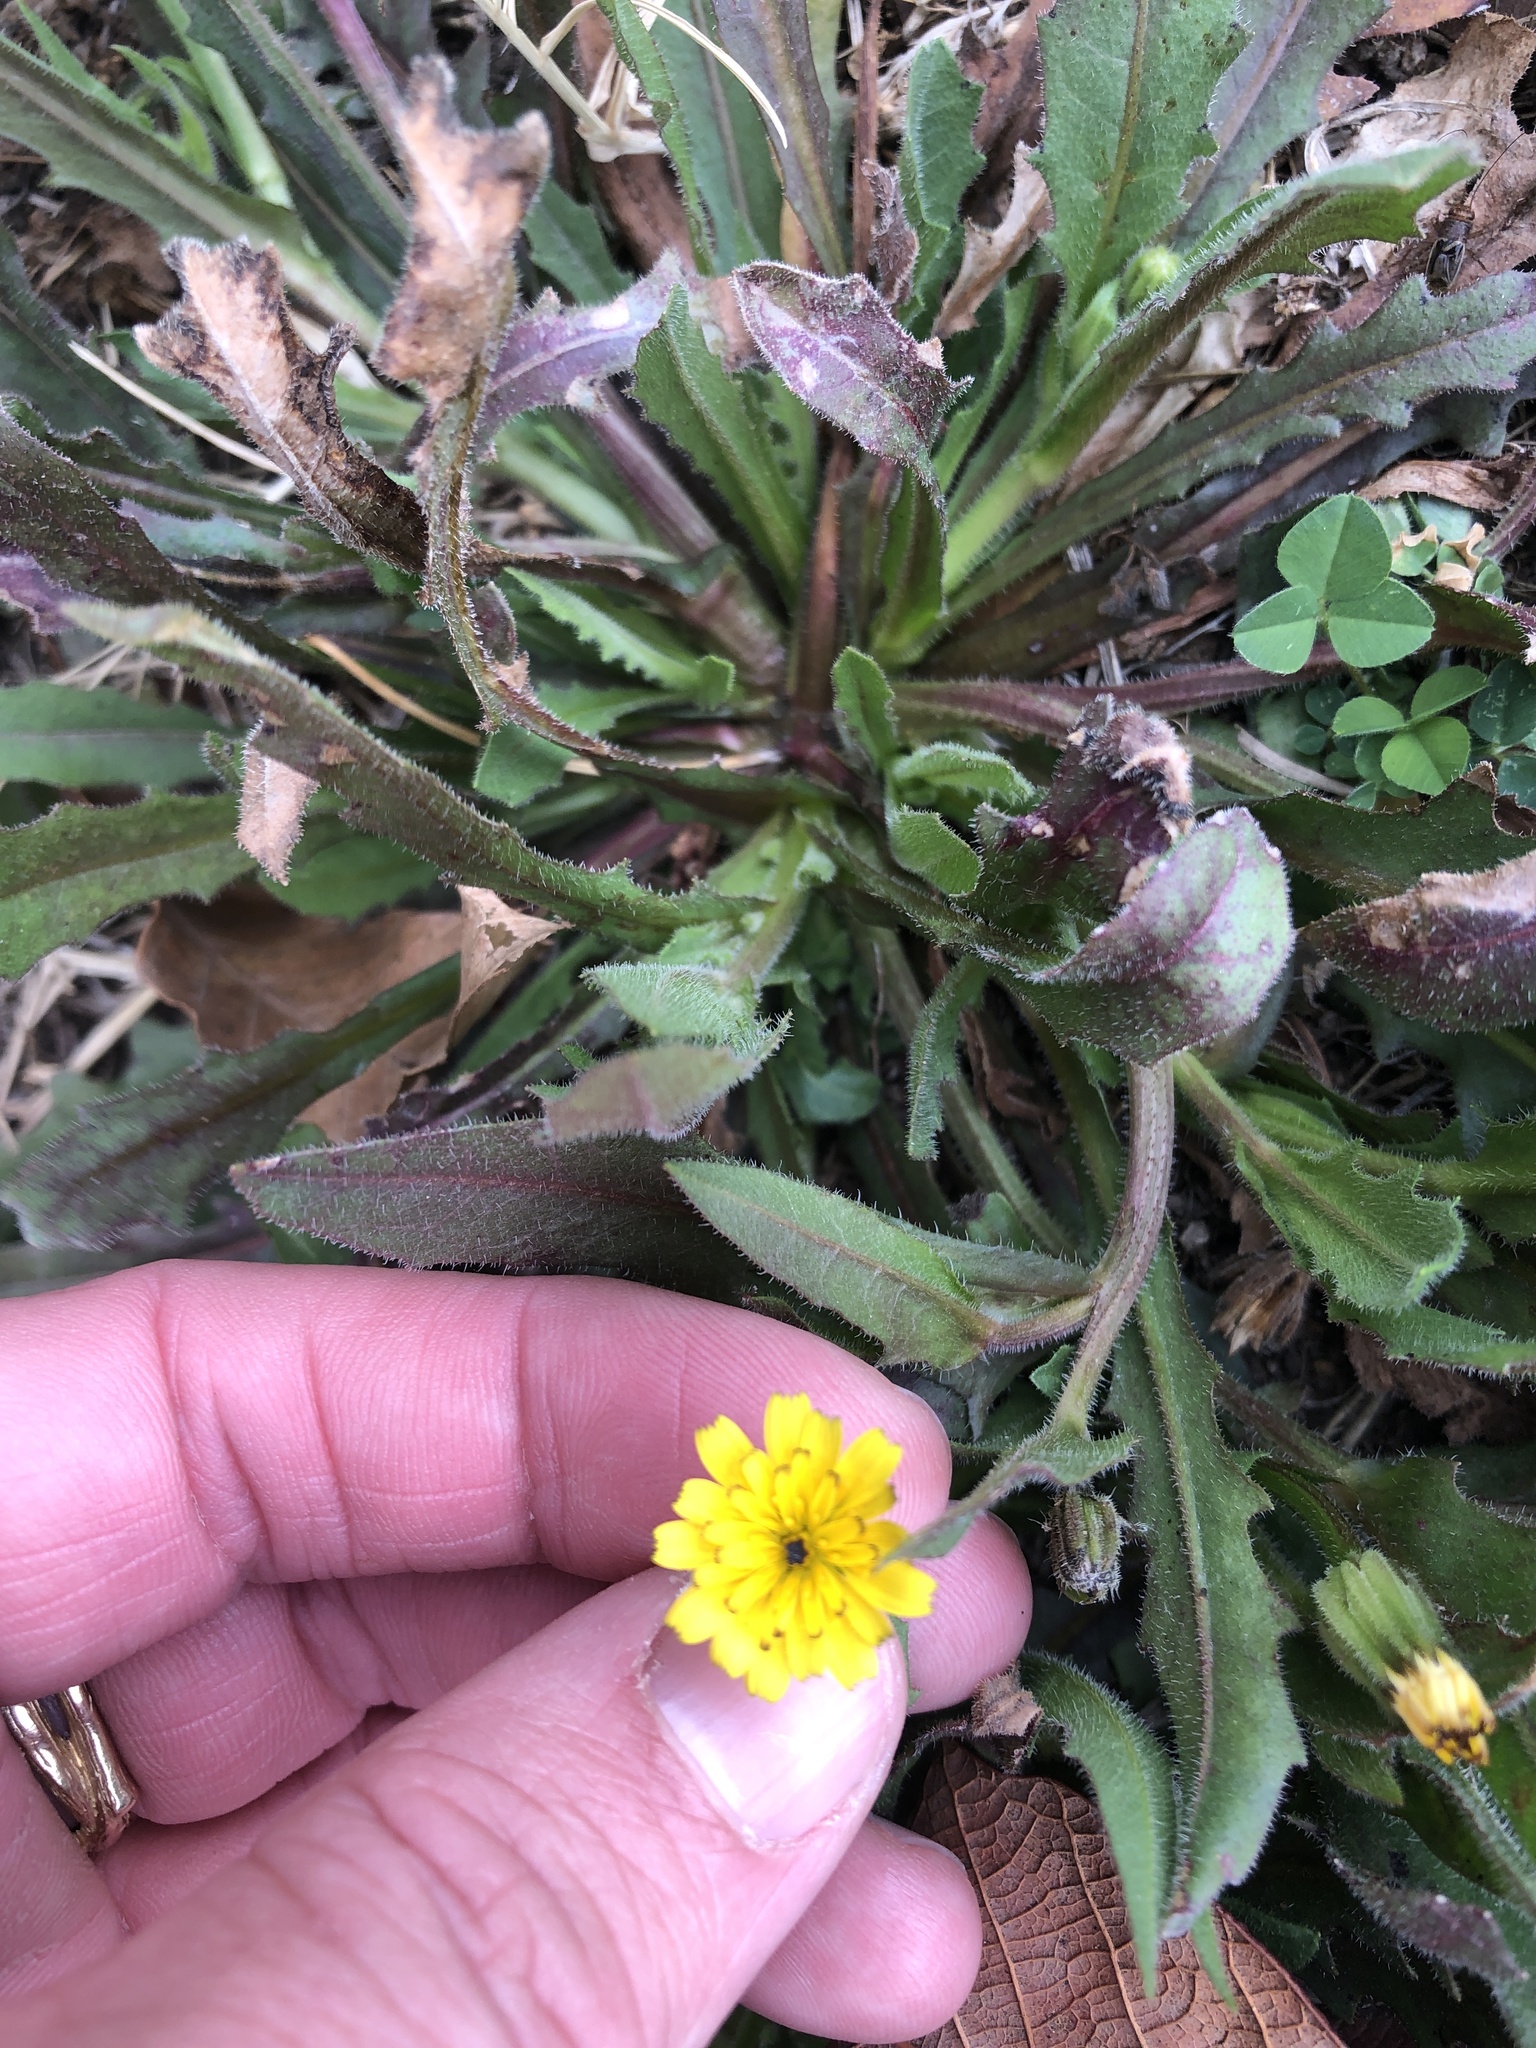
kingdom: Plantae
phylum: Tracheophyta
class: Magnoliopsida
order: Asterales
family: Asteraceae
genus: Hedypnois
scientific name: Hedypnois rhagadioloides
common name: Cretan weed
